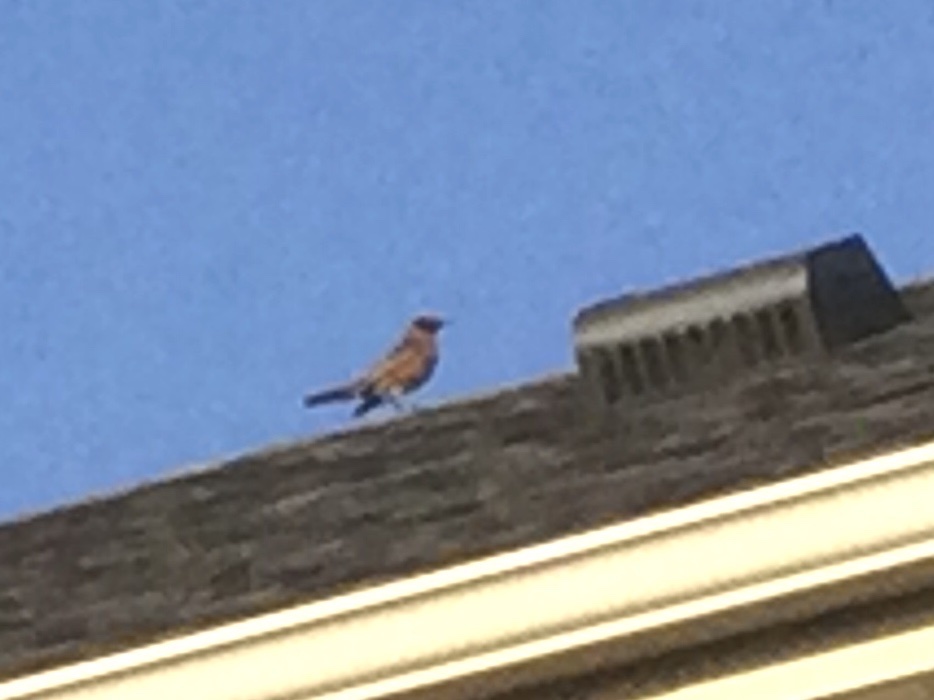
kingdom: Animalia
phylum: Chordata
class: Aves
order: Passeriformes
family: Turdidae
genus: Turdus
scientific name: Turdus migratorius
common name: American robin
